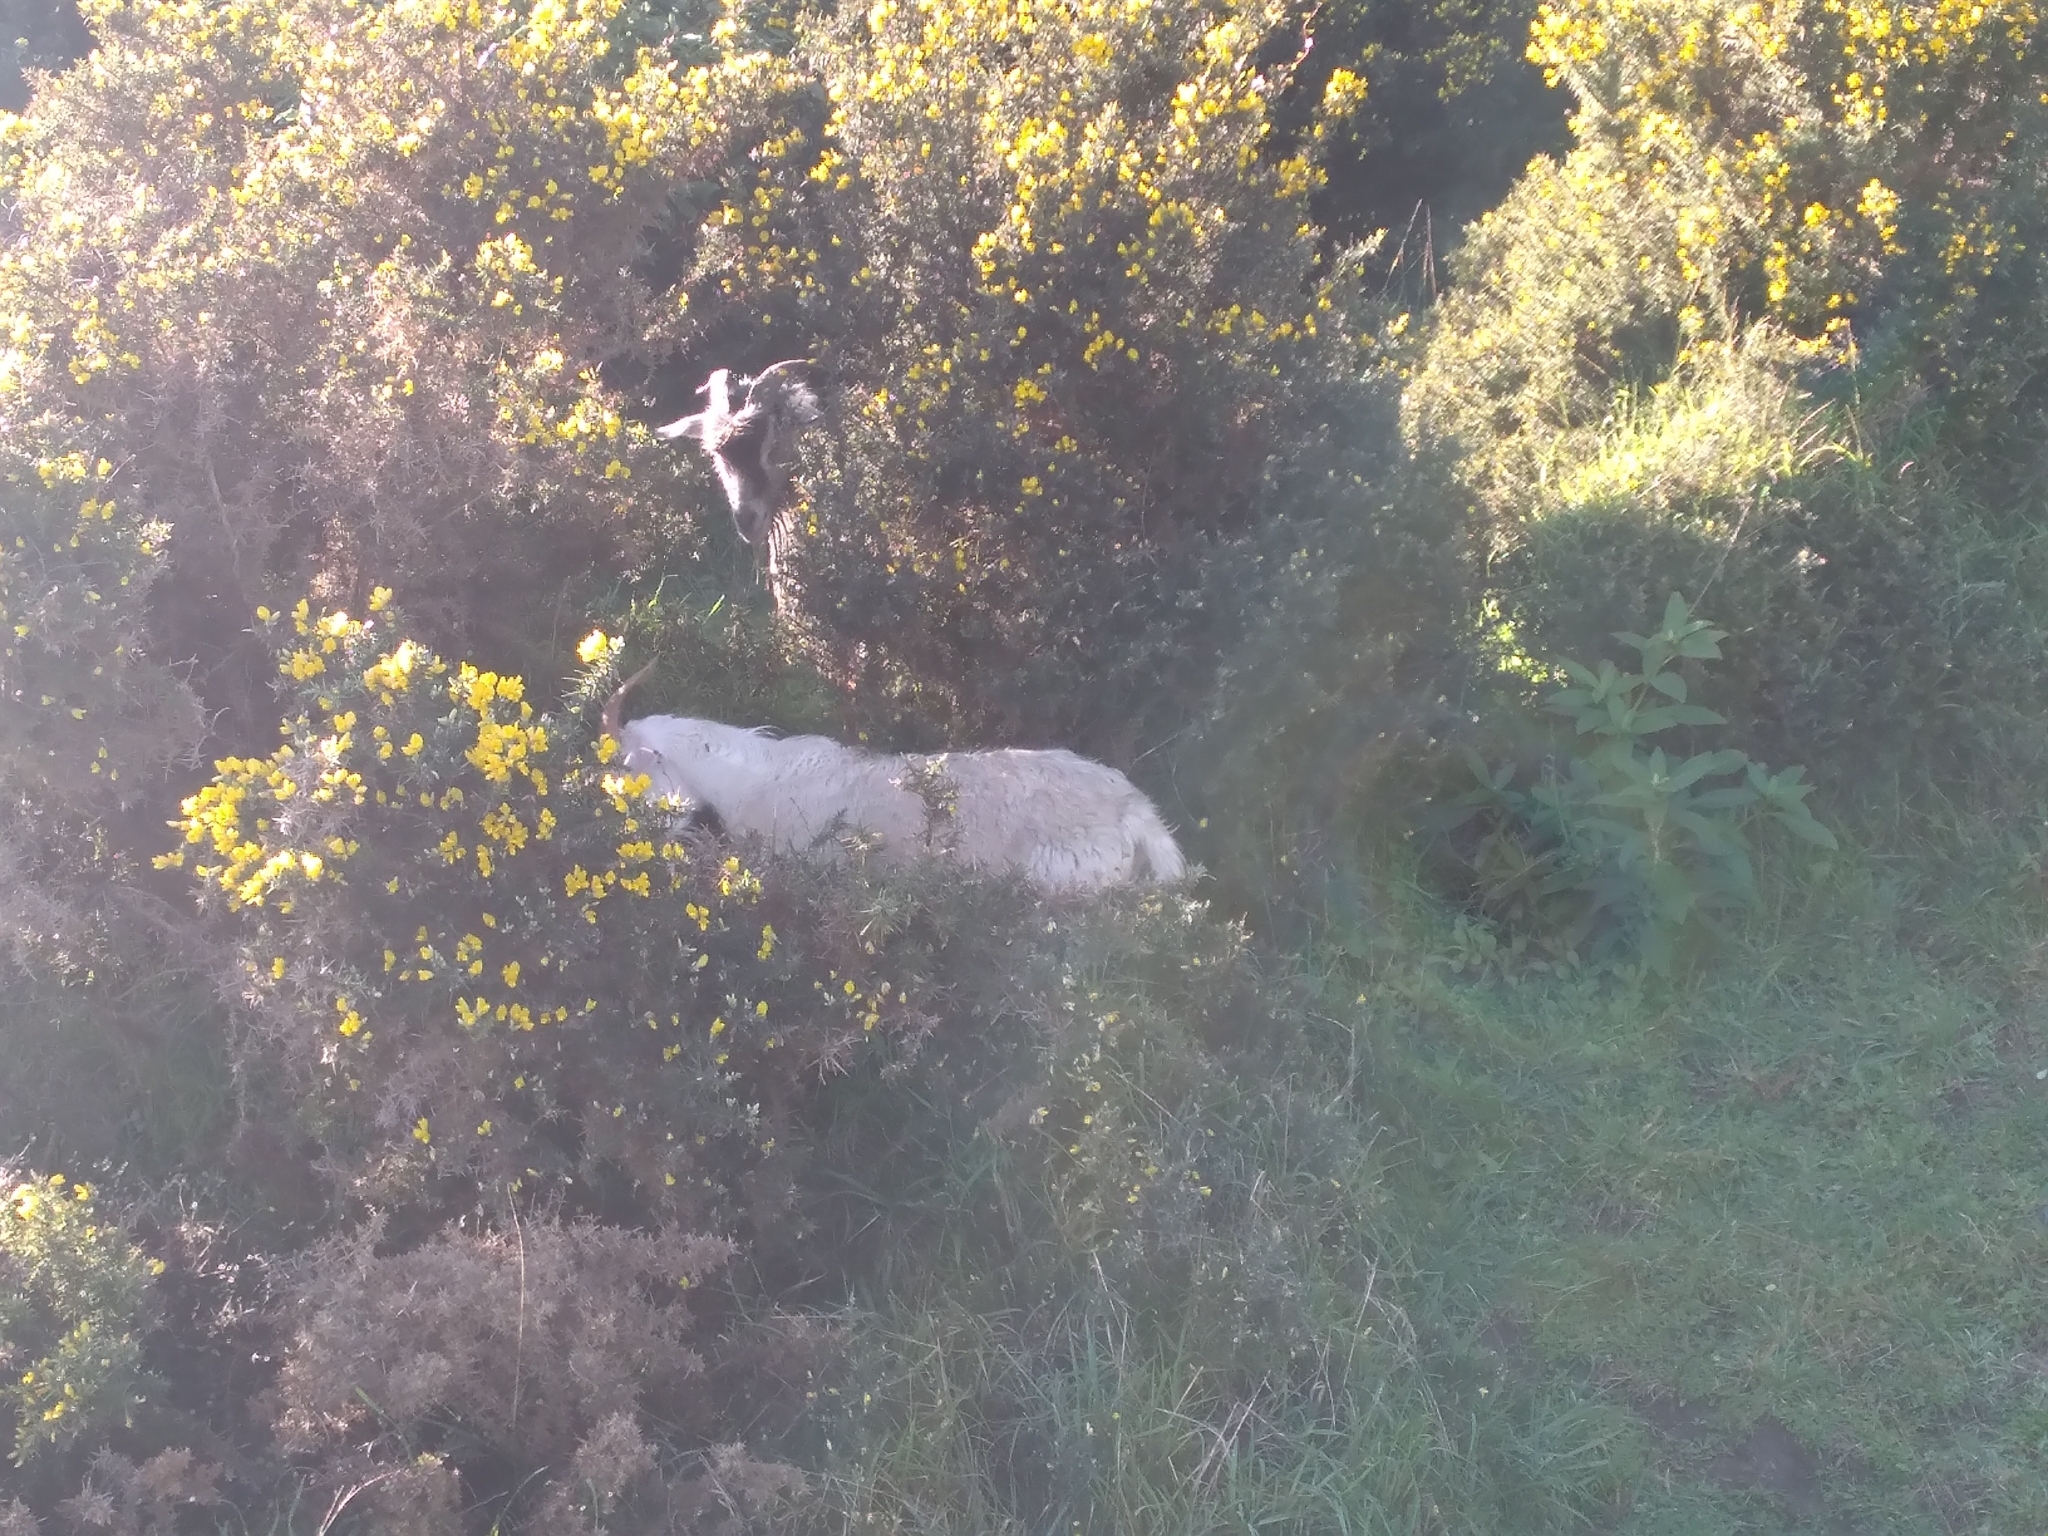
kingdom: Animalia
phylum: Chordata
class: Mammalia
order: Artiodactyla
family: Bovidae
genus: Capra
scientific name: Capra hircus
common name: Domestic goat
